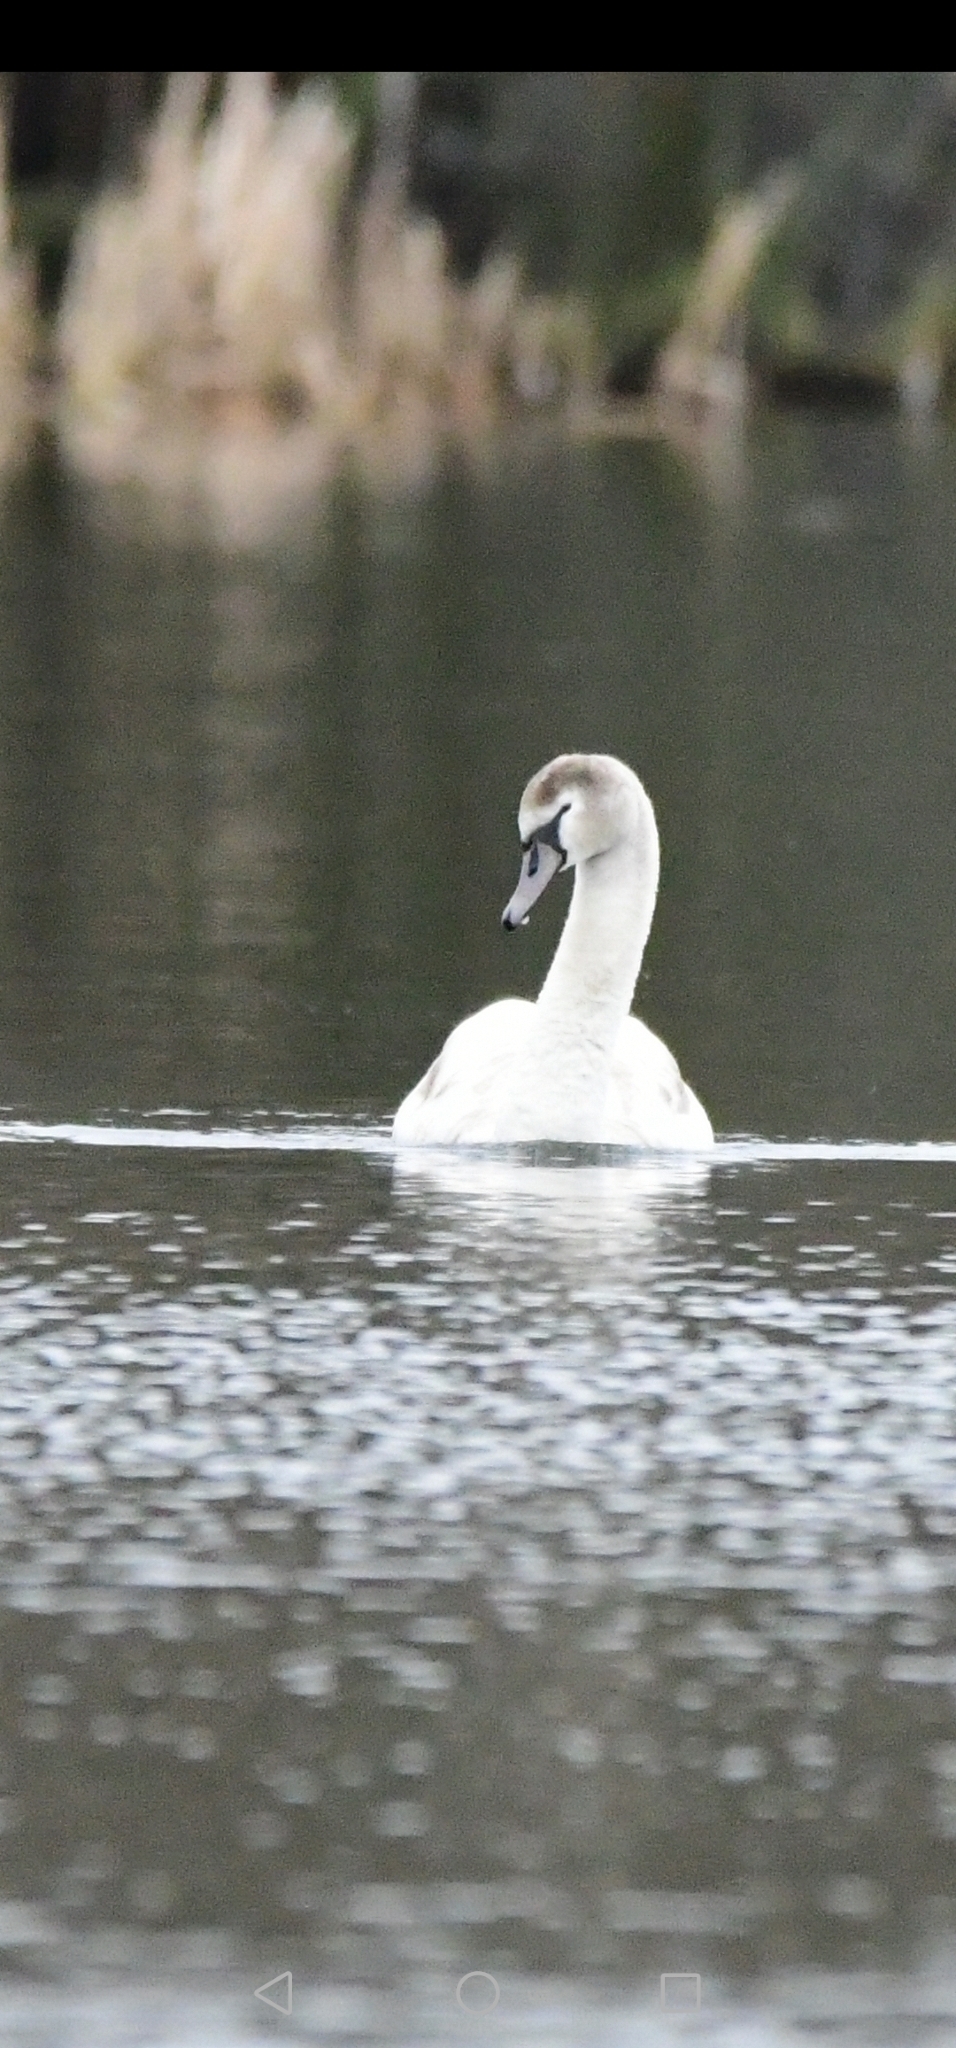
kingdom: Animalia
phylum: Chordata
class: Aves
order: Anseriformes
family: Anatidae
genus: Cygnus
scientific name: Cygnus olor
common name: Mute swan
